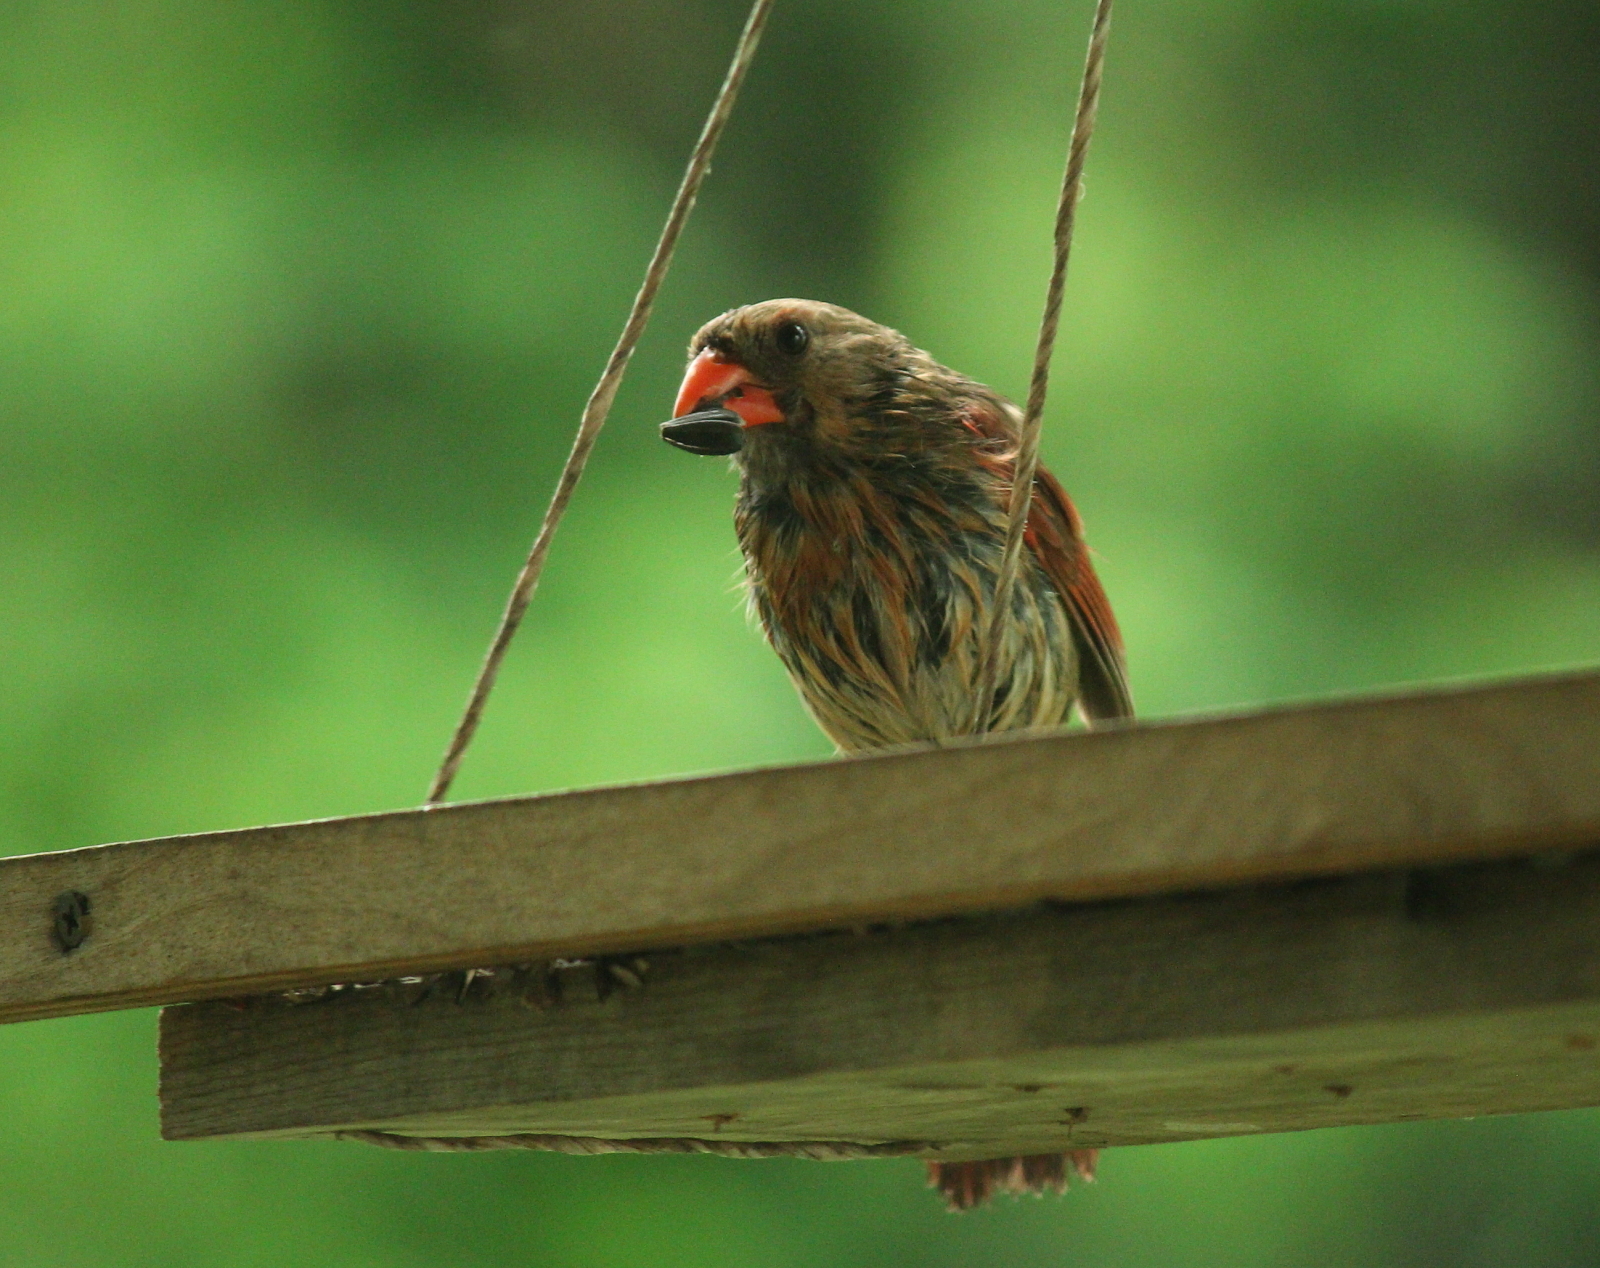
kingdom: Animalia
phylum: Chordata
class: Aves
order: Passeriformes
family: Cardinalidae
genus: Cardinalis
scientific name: Cardinalis cardinalis
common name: Northern cardinal
